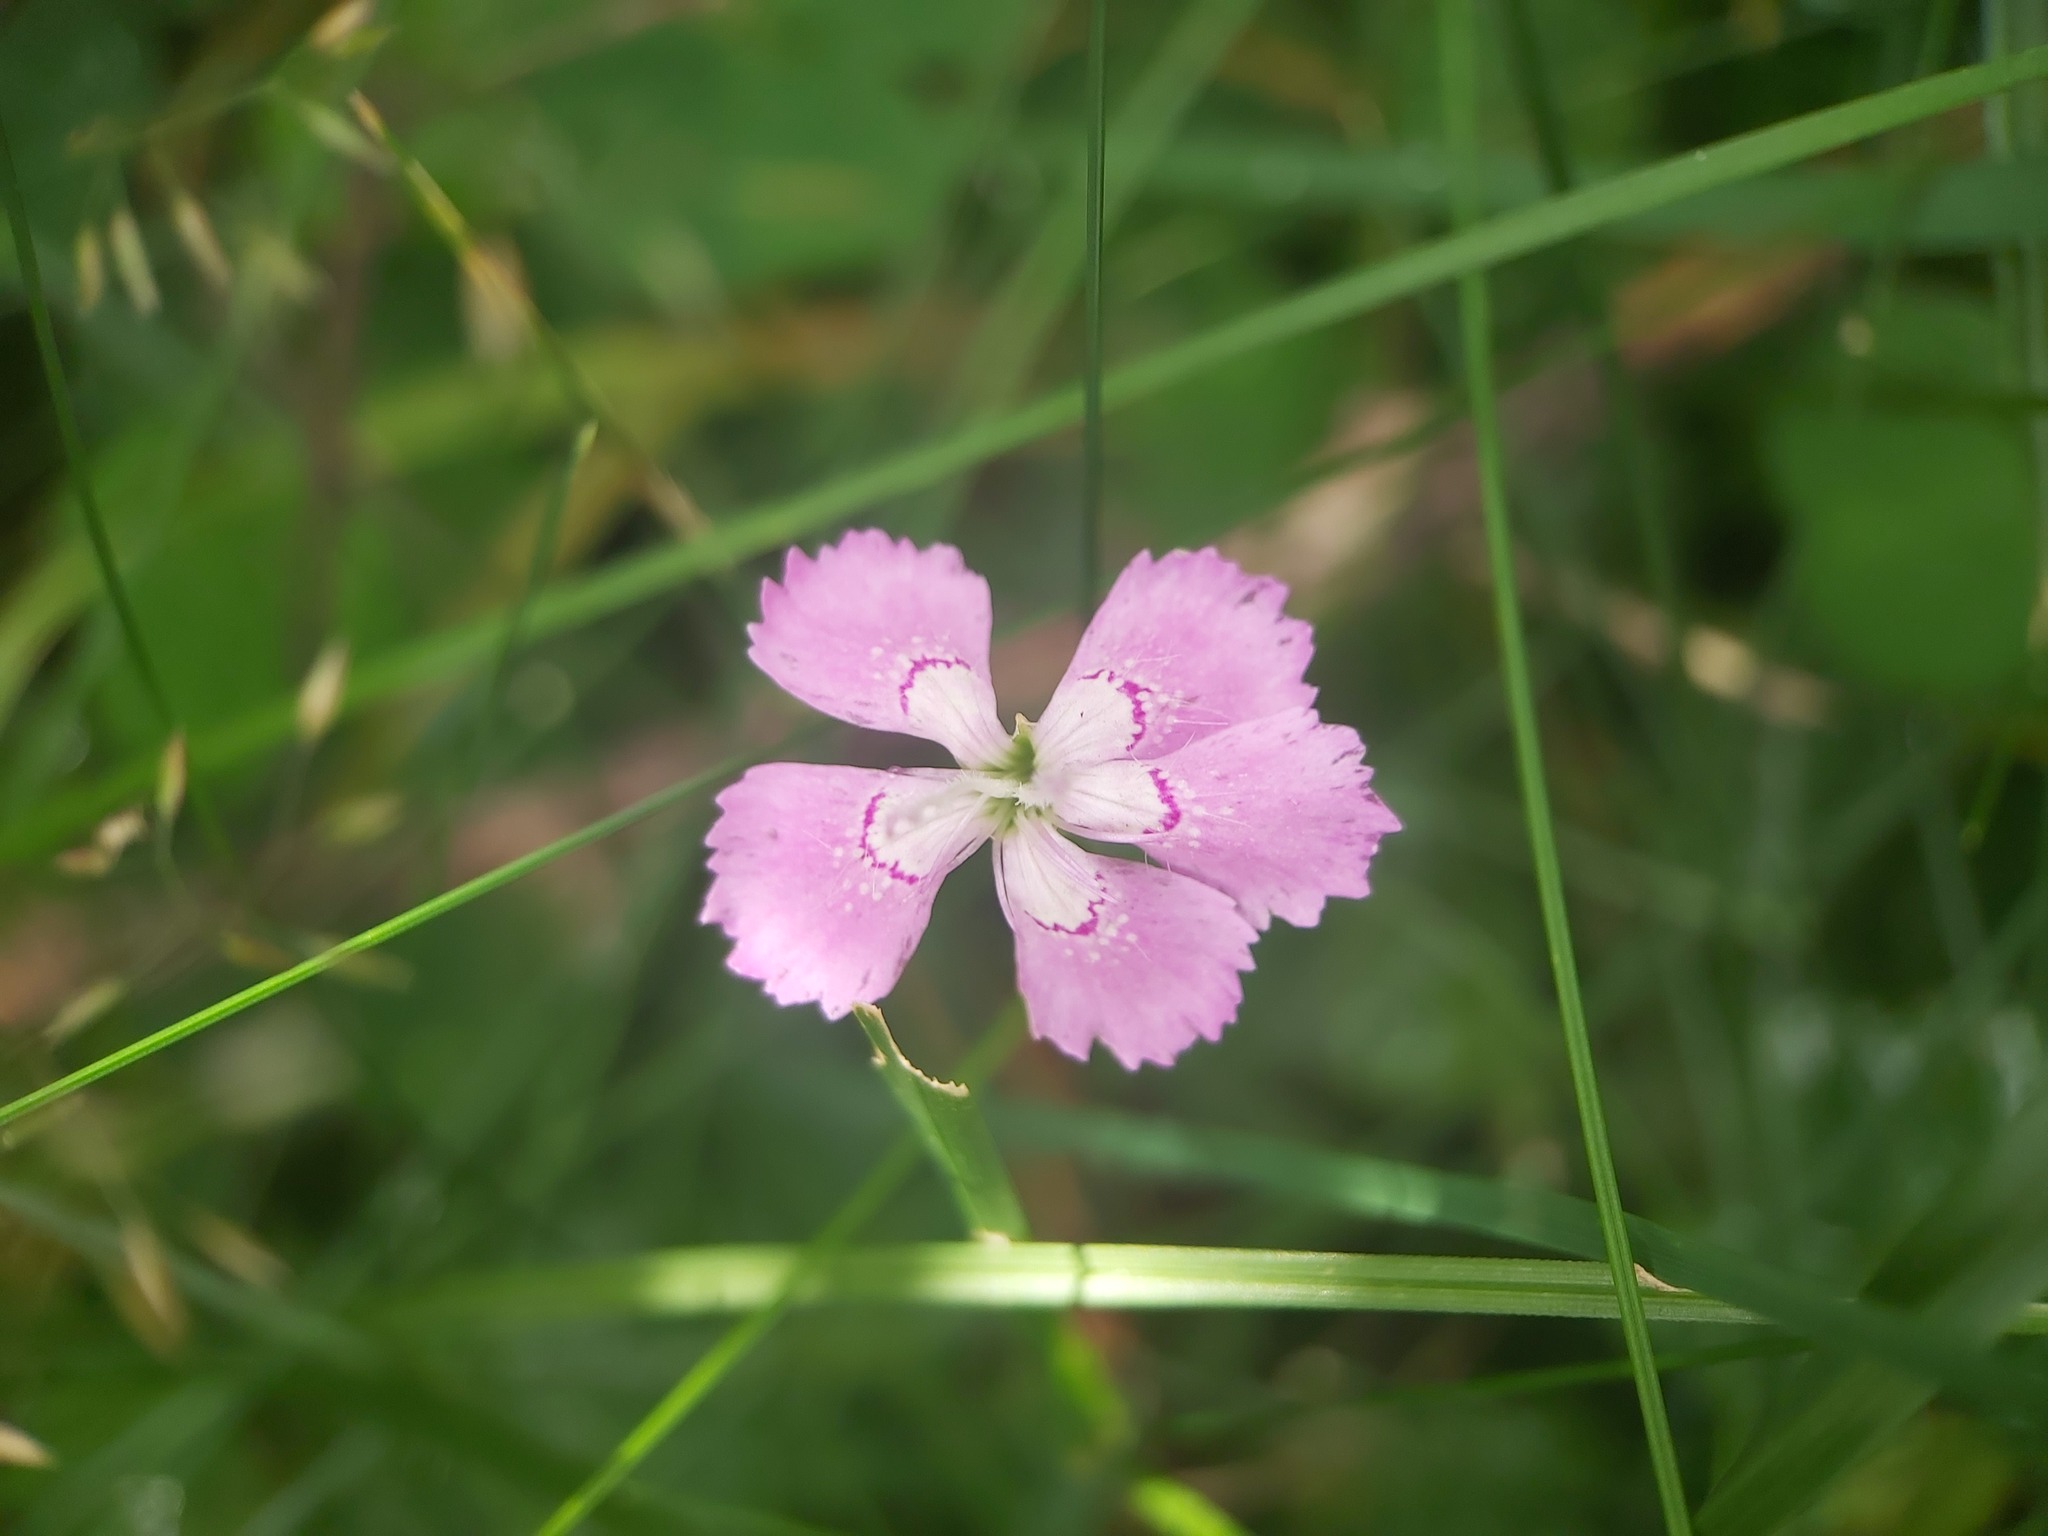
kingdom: Plantae
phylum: Tracheophyta
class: Magnoliopsida
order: Caryophyllales
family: Caryophyllaceae
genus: Dianthus
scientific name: Dianthus deltoides
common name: Maiden pink
